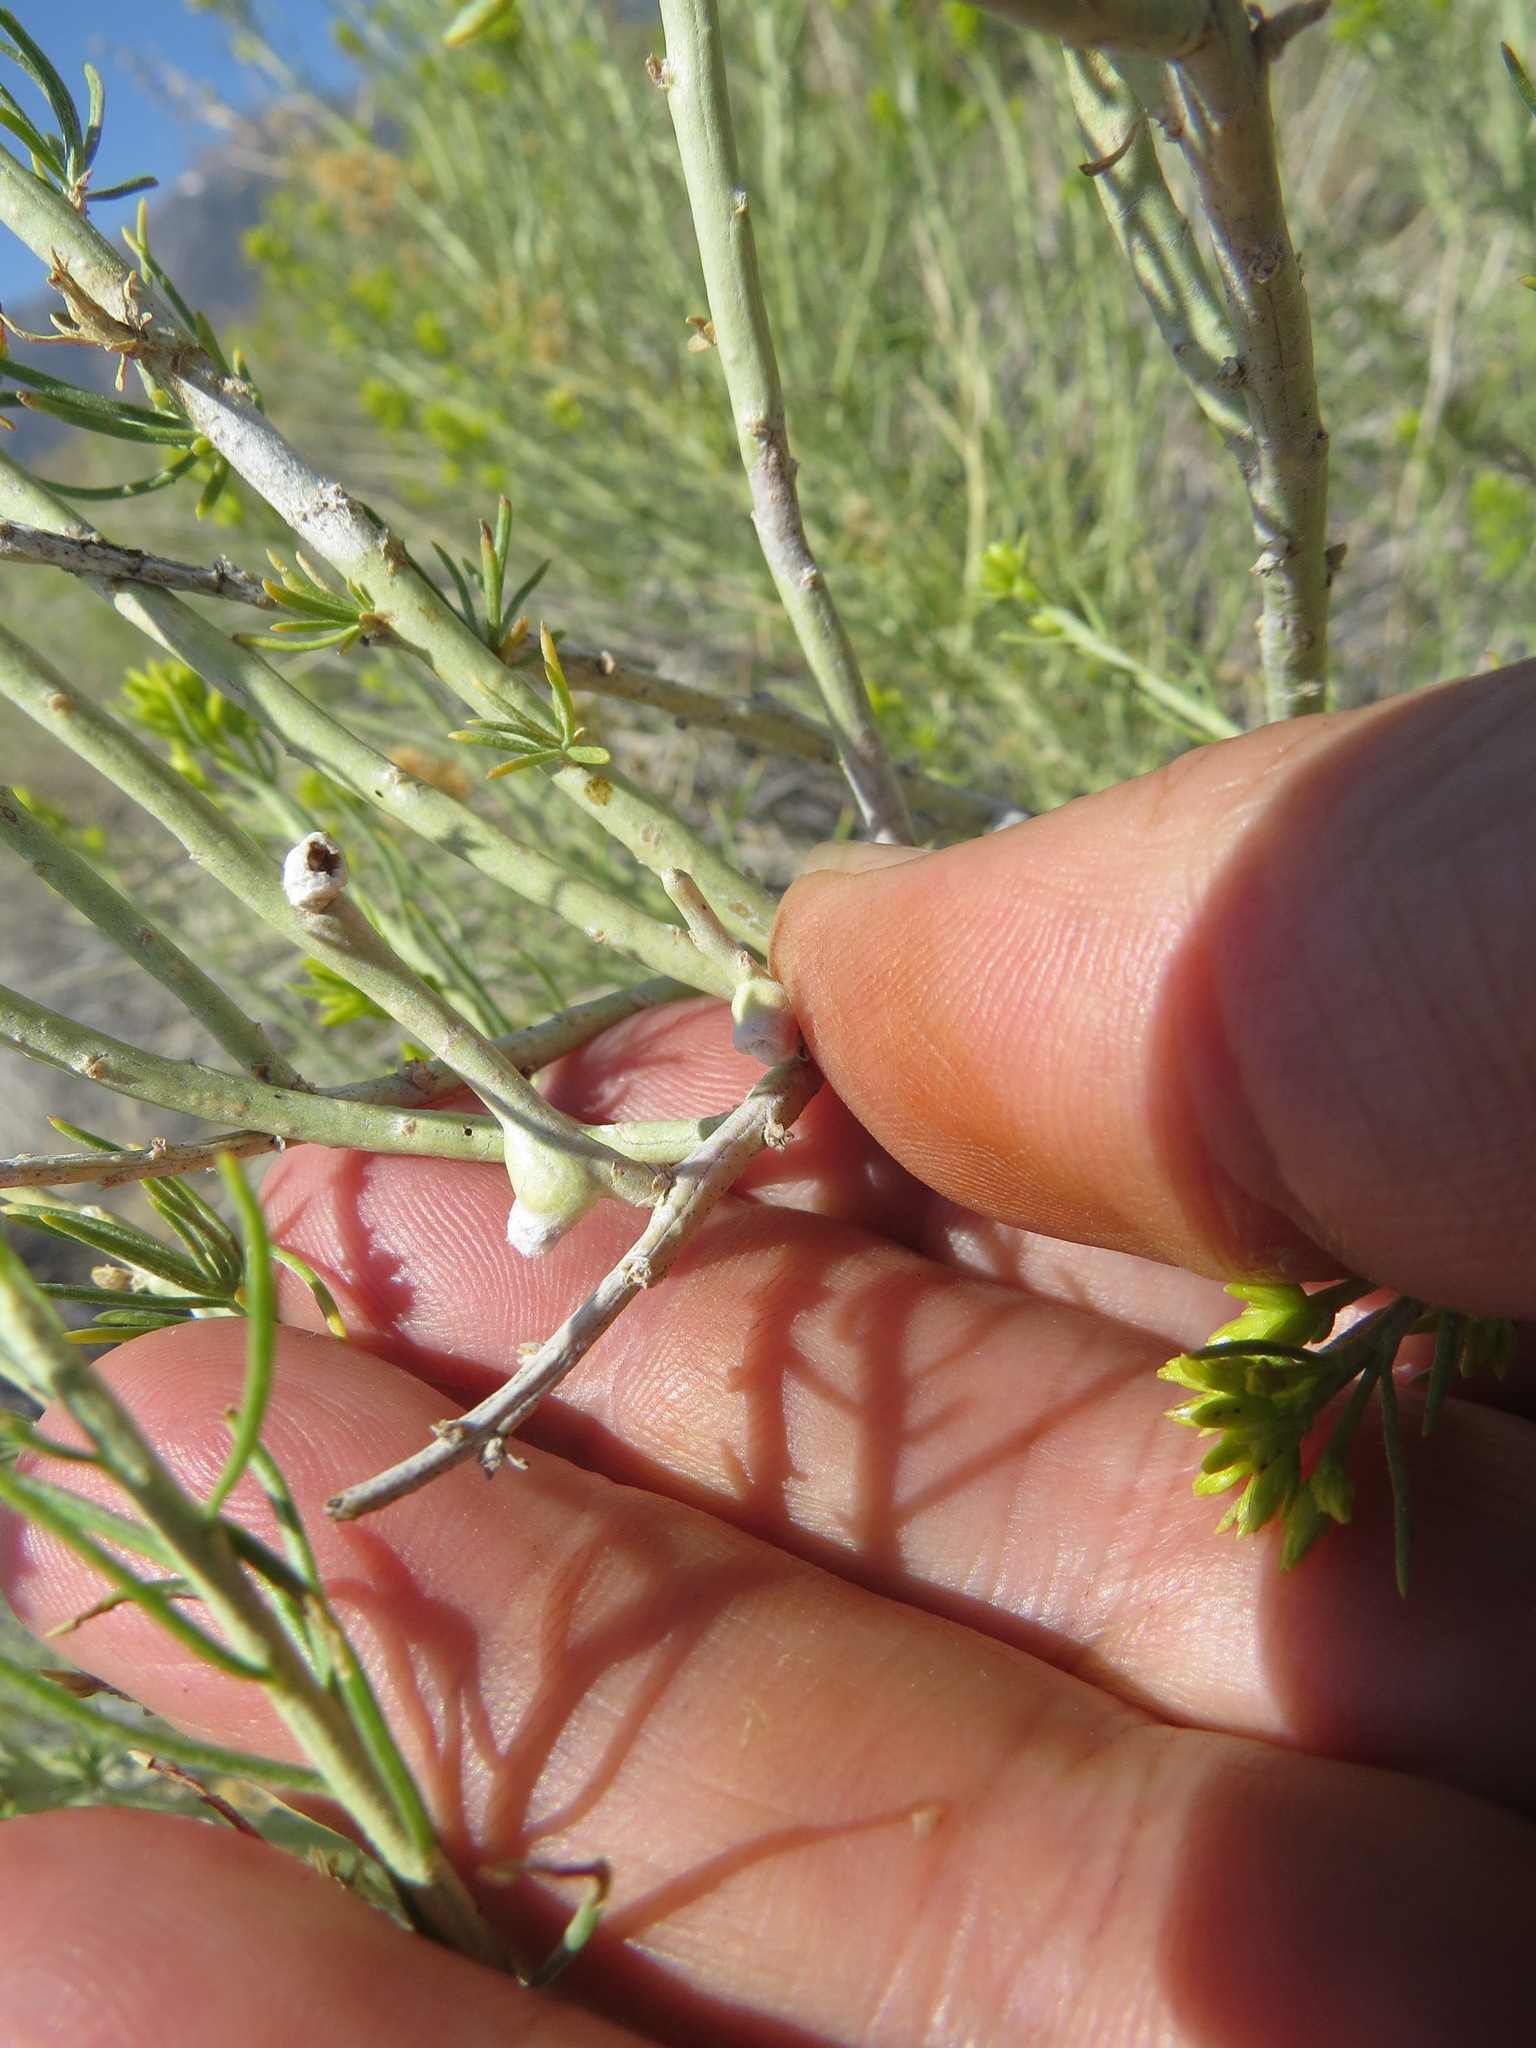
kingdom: Animalia
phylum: Arthropoda
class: Insecta
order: Diptera
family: Cecidomyiidae
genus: Rhopalomyia
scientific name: Rhopalomyia chrysothamni
